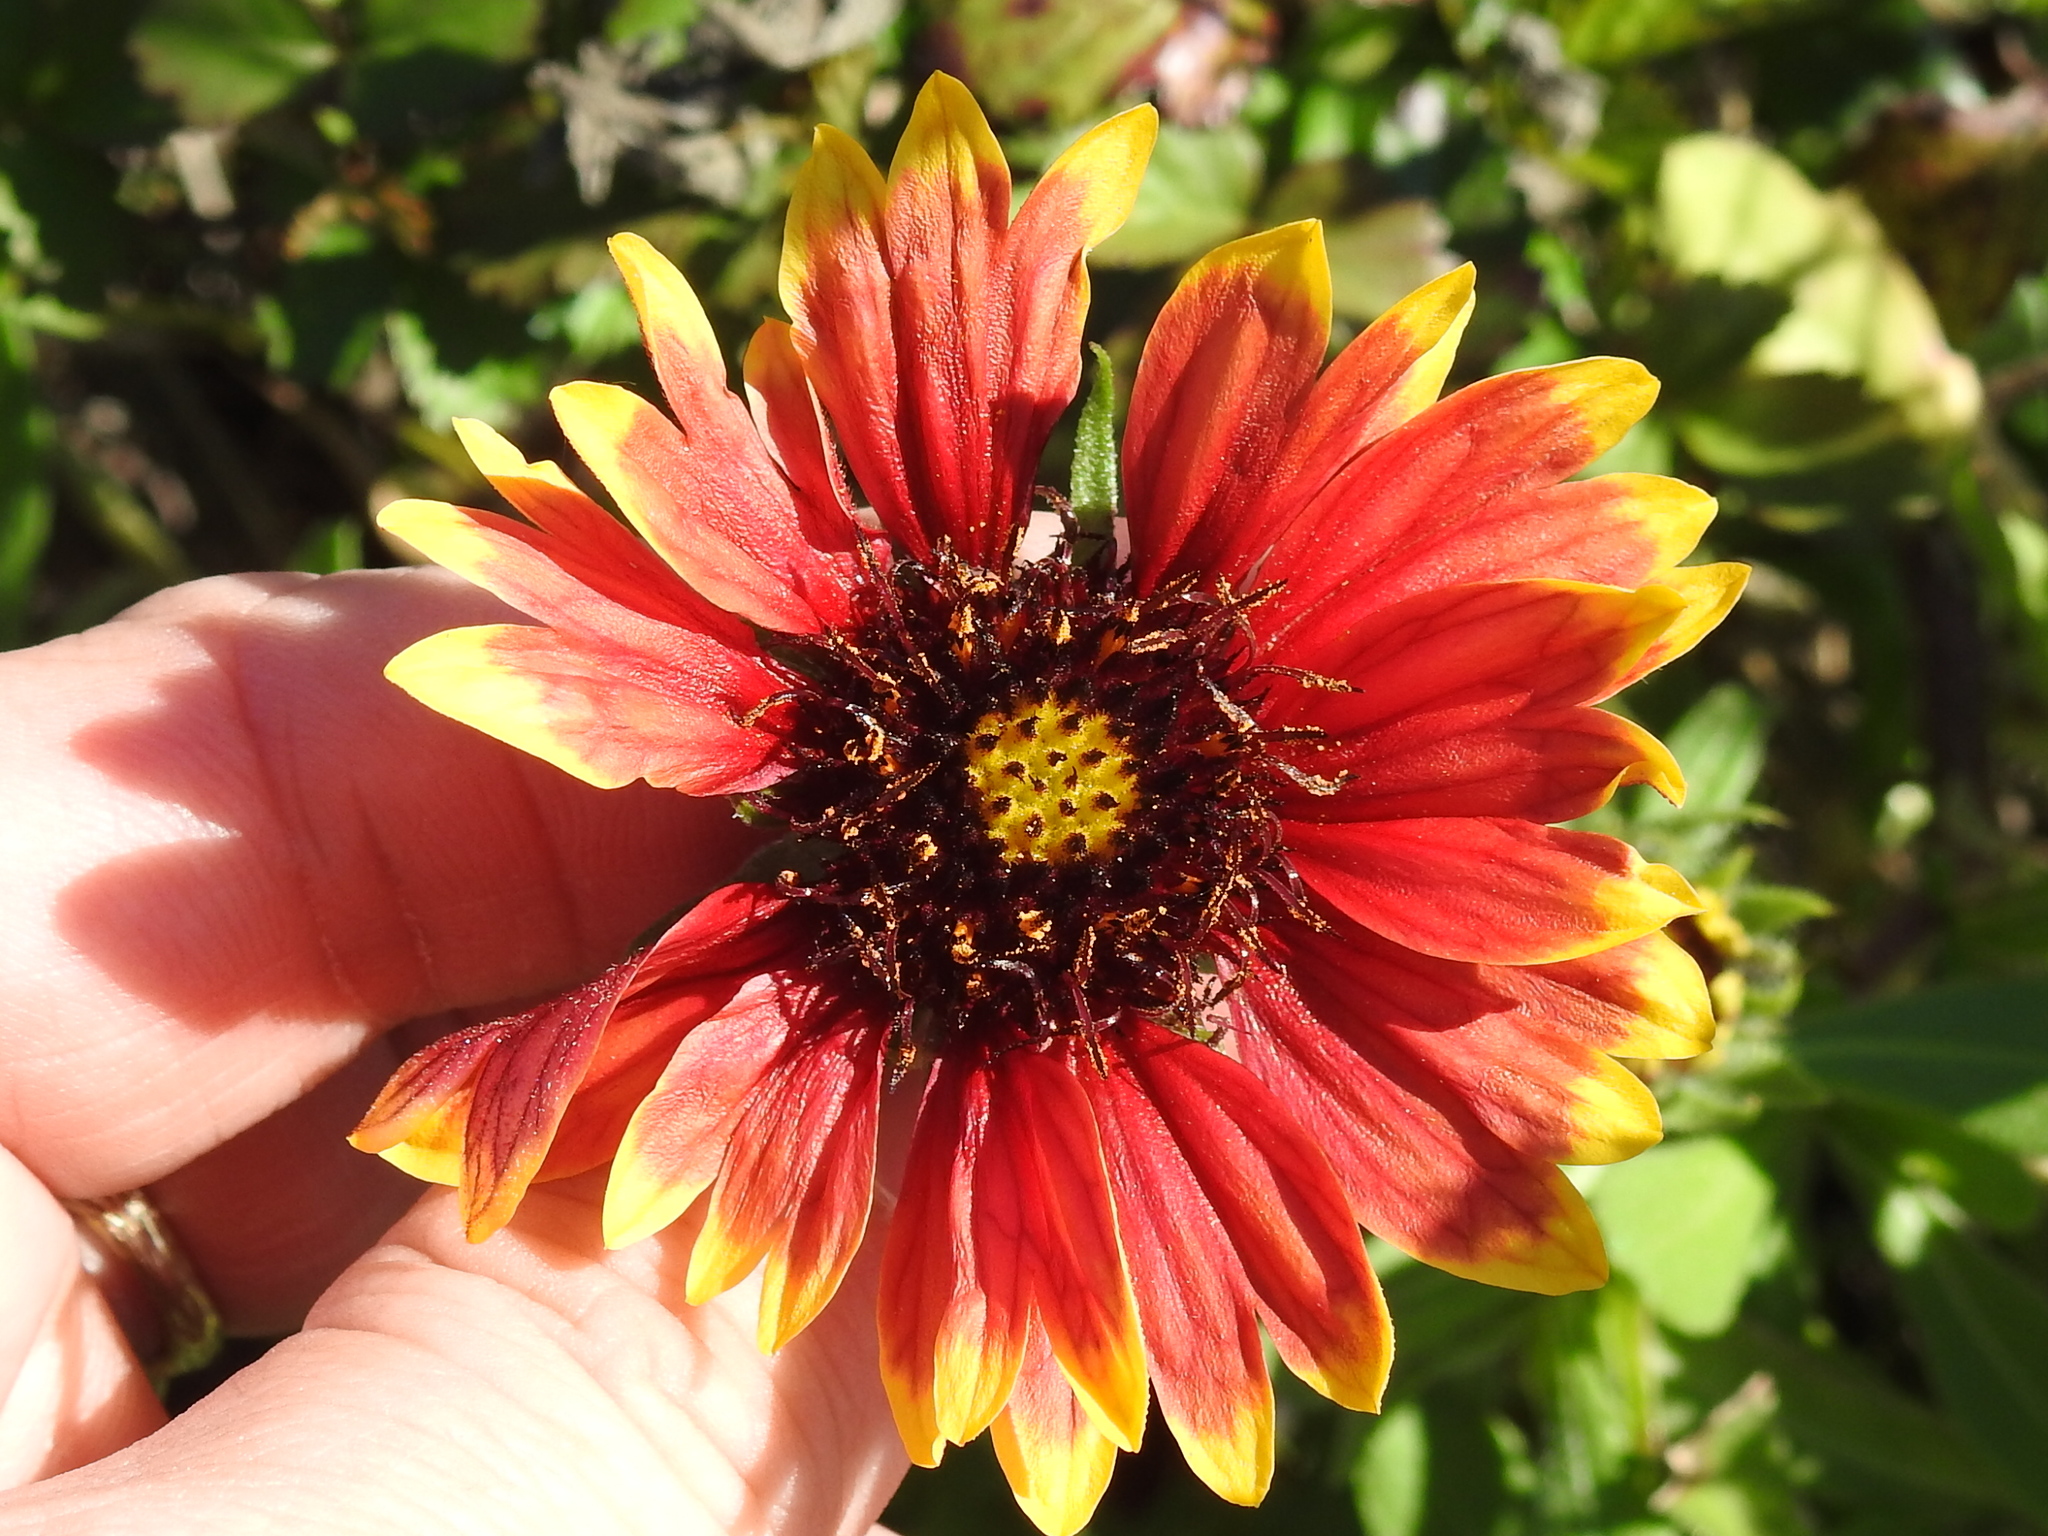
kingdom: Plantae
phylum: Tracheophyta
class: Magnoliopsida
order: Asterales
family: Asteraceae
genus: Gaillardia
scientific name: Gaillardia pulchella
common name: Firewheel
